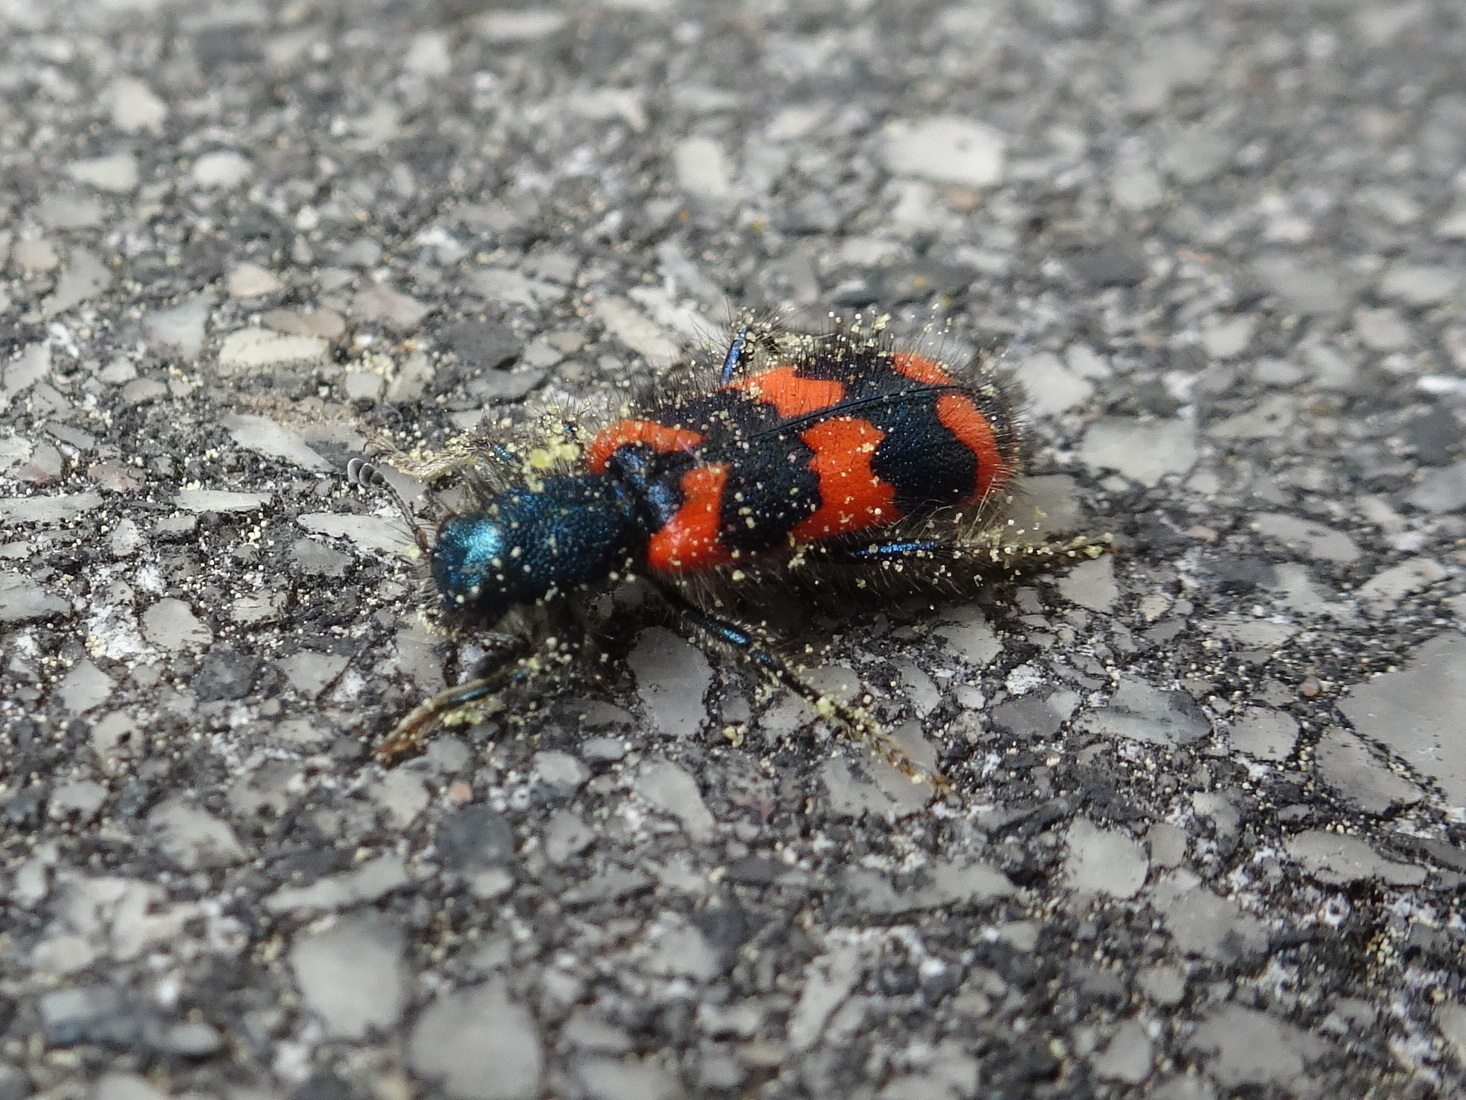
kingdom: Animalia
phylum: Arthropoda
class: Insecta
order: Coleoptera
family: Cleridae
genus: Trichodes
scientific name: Trichodes alvearius
